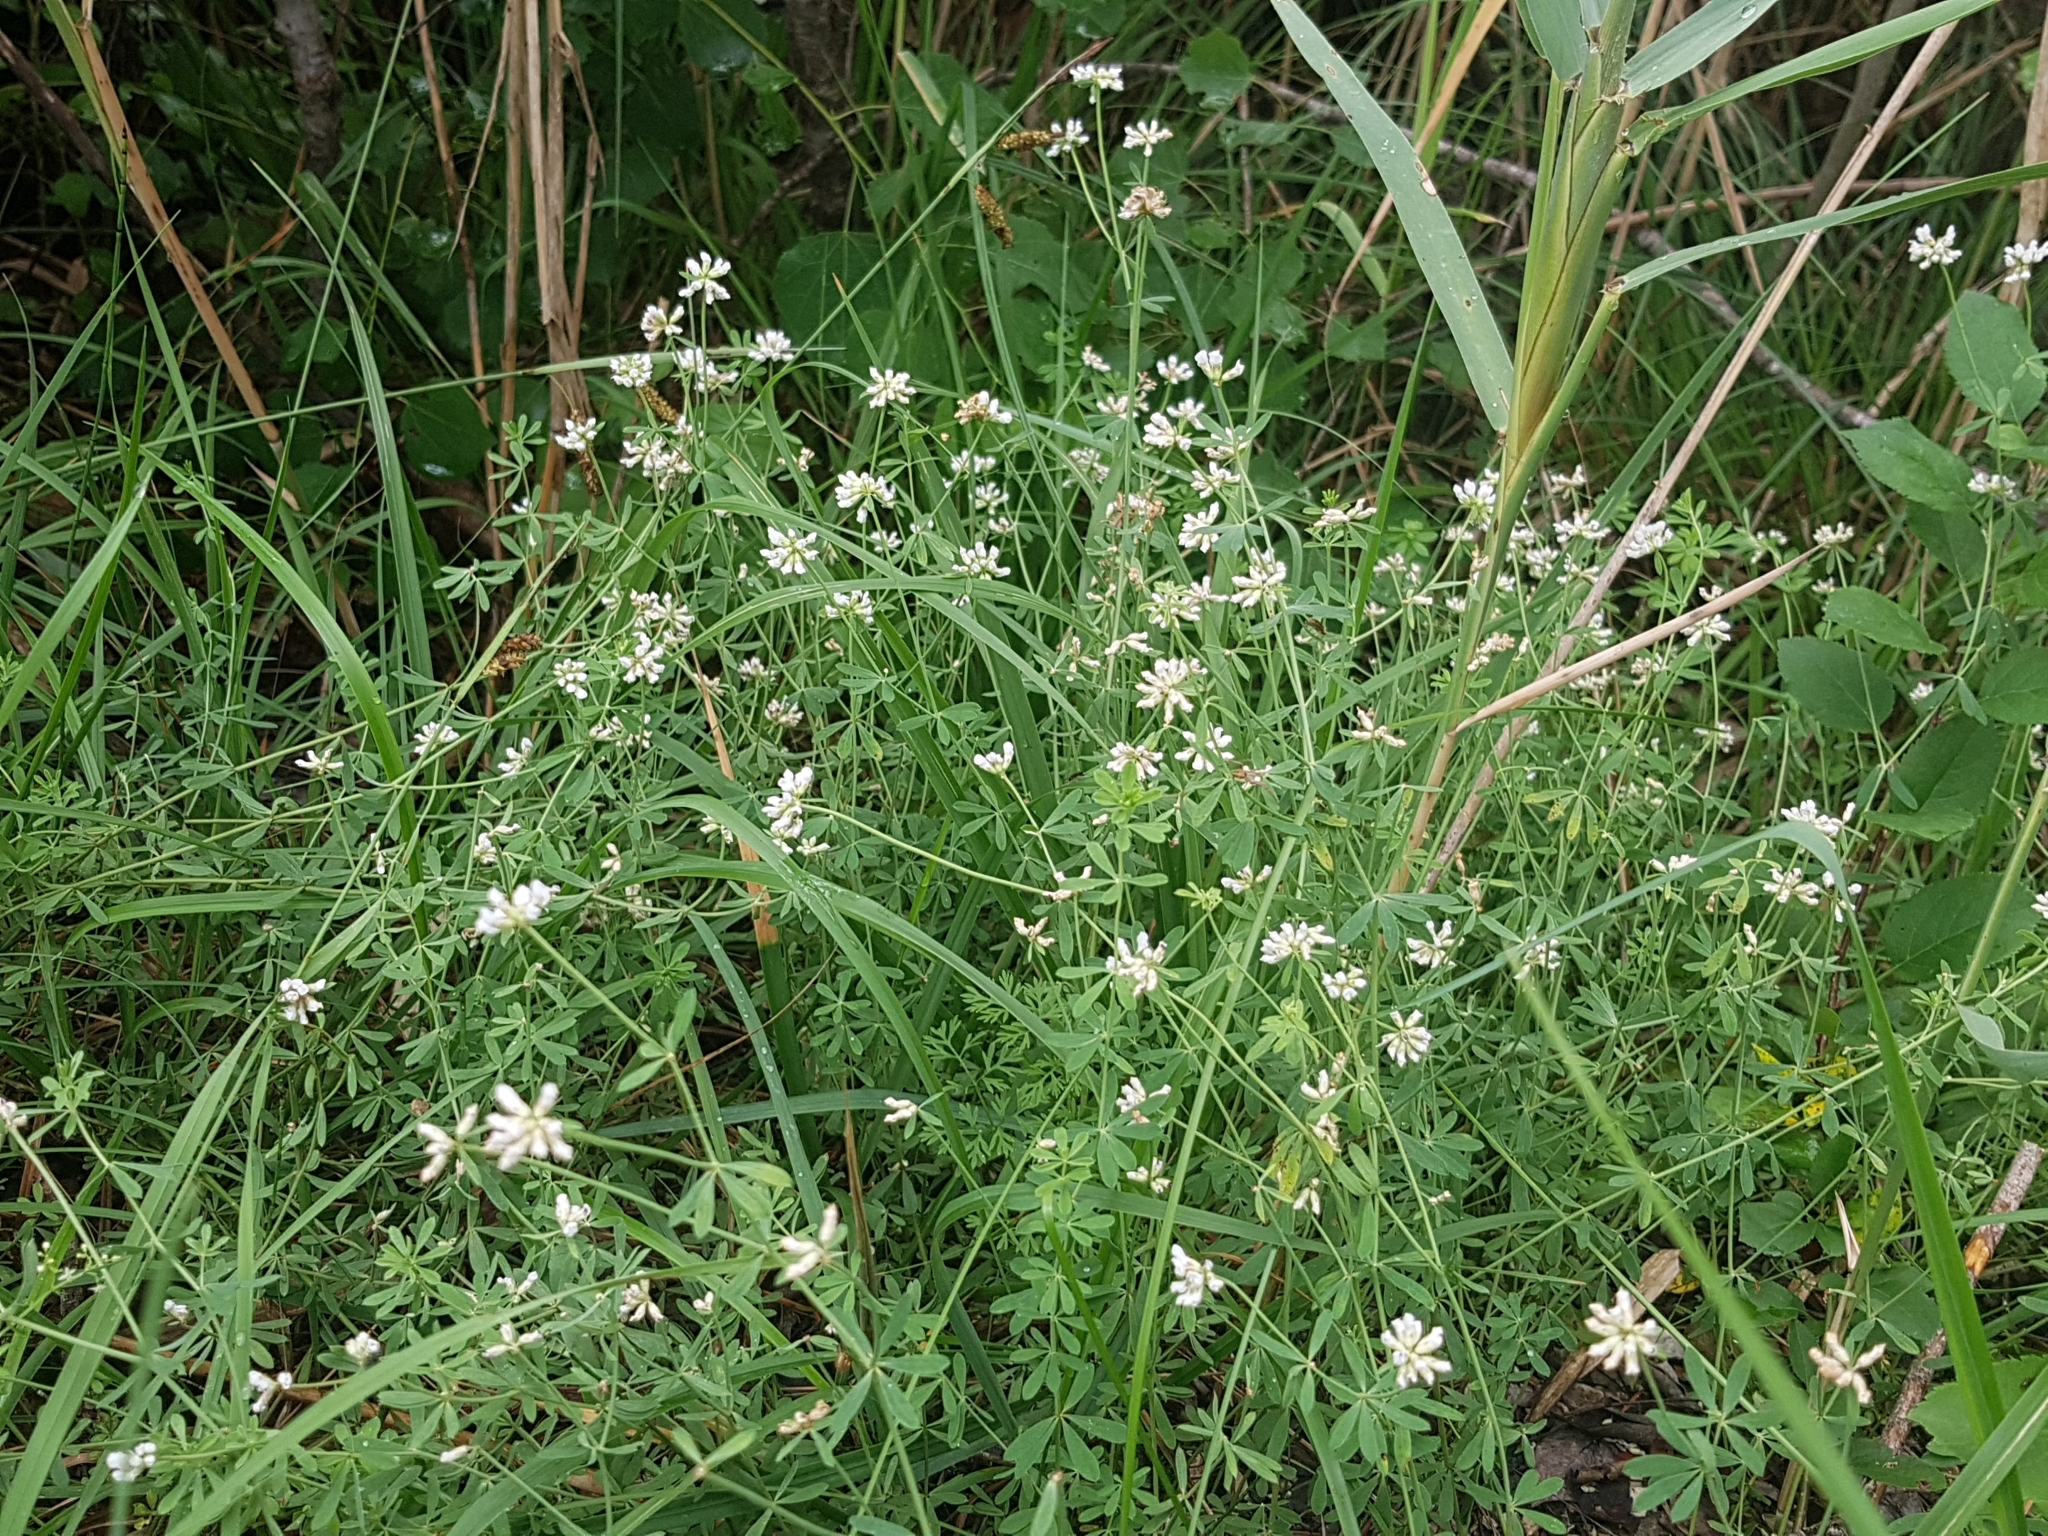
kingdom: Plantae
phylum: Tracheophyta
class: Magnoliopsida
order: Fabales
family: Fabaceae
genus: Lotus
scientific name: Lotus germanicus
